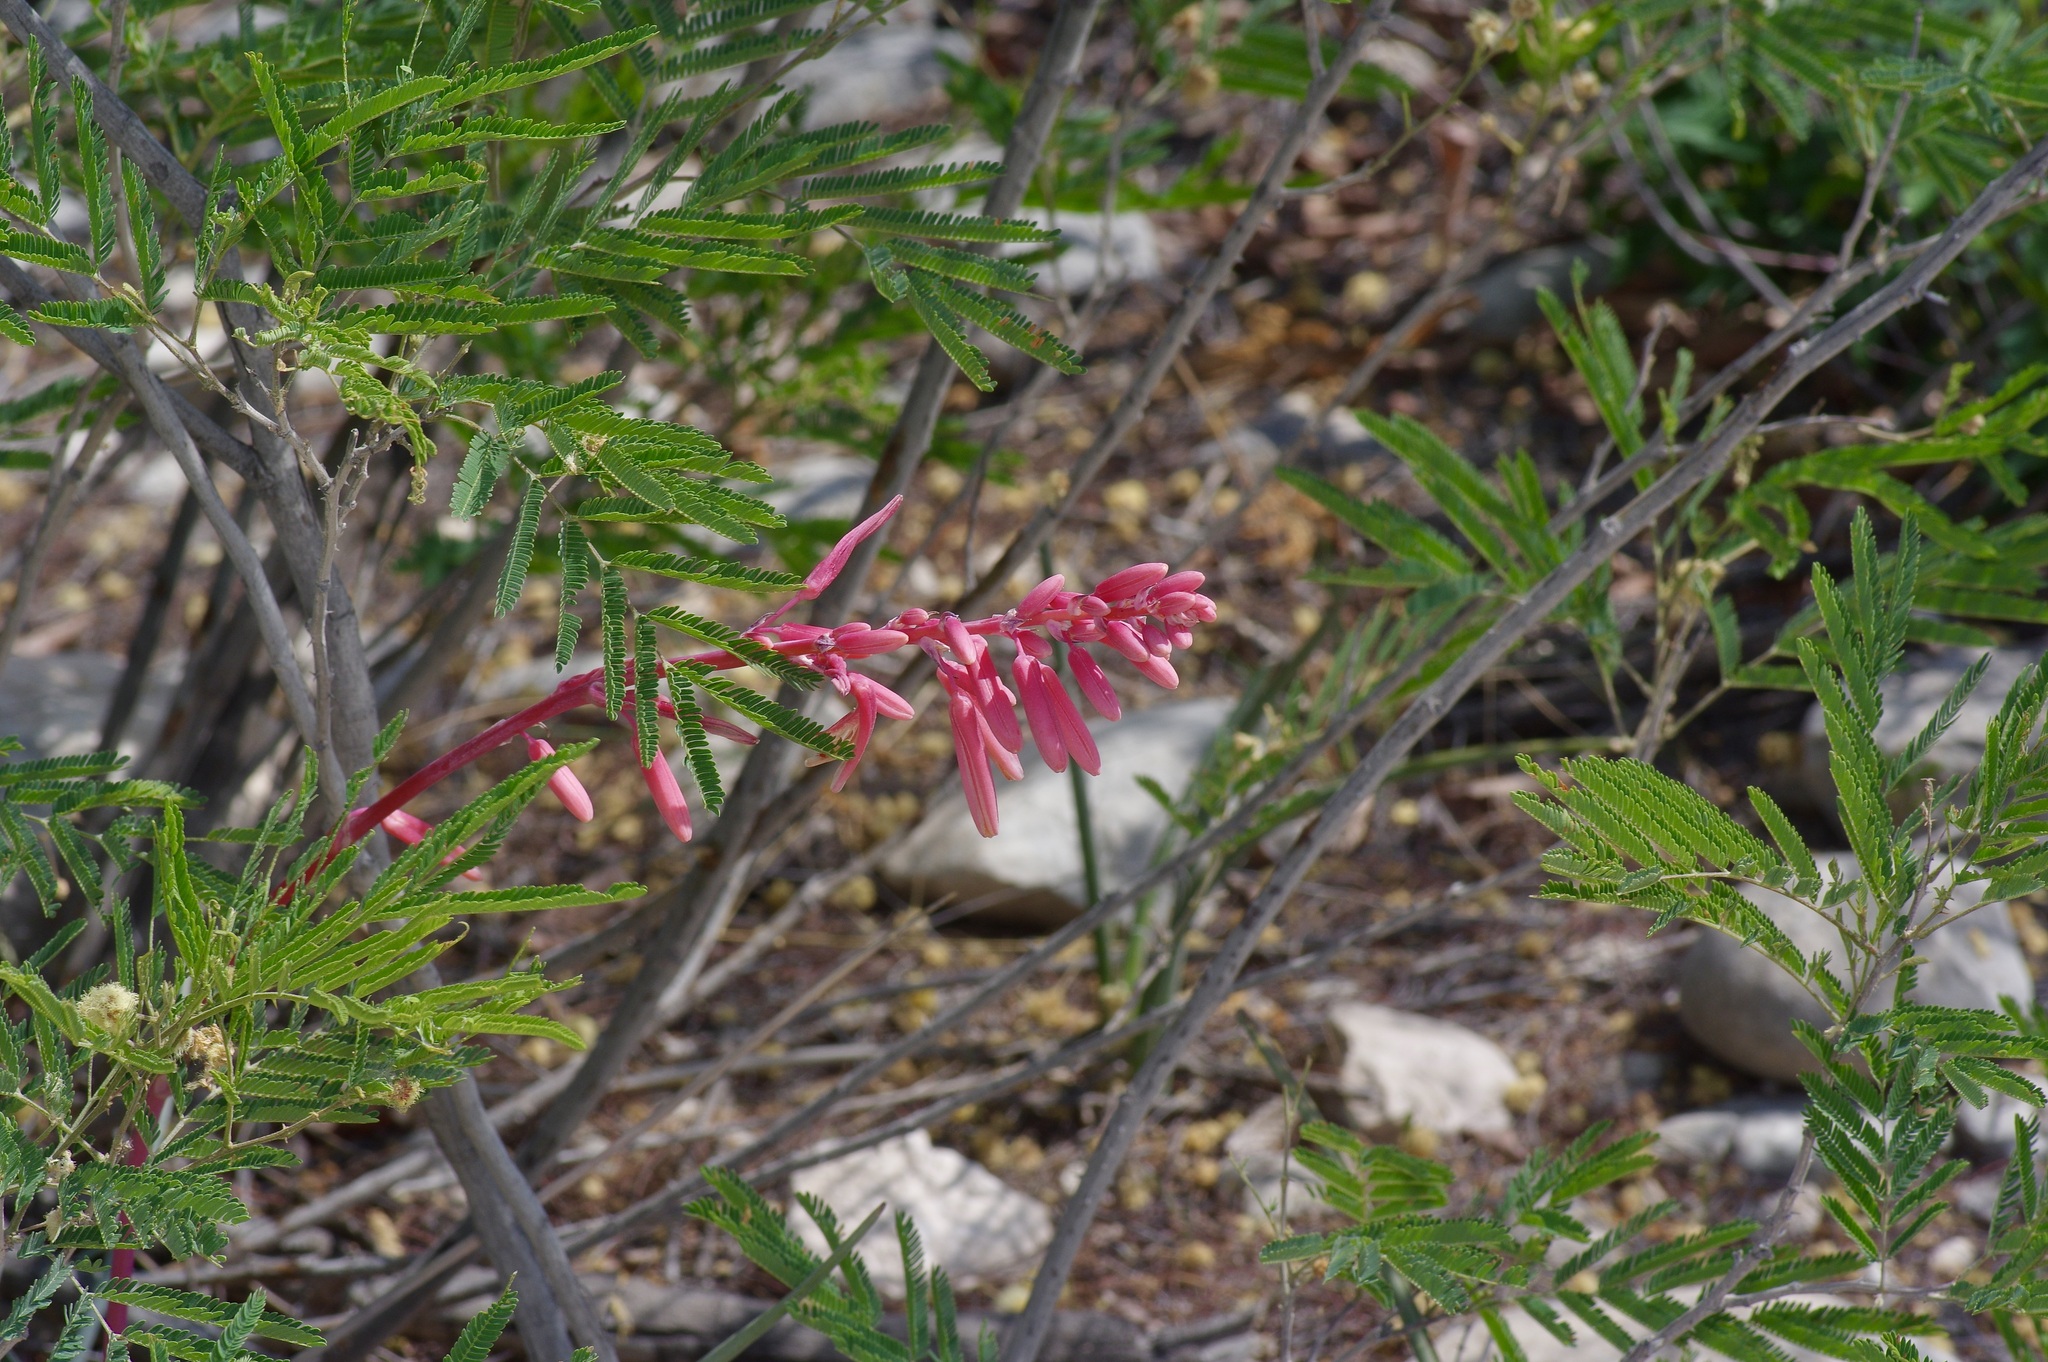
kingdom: Plantae
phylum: Tracheophyta
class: Liliopsida
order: Asparagales
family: Asparagaceae
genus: Hesperaloe
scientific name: Hesperaloe parviflora
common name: Red hesperaloe
